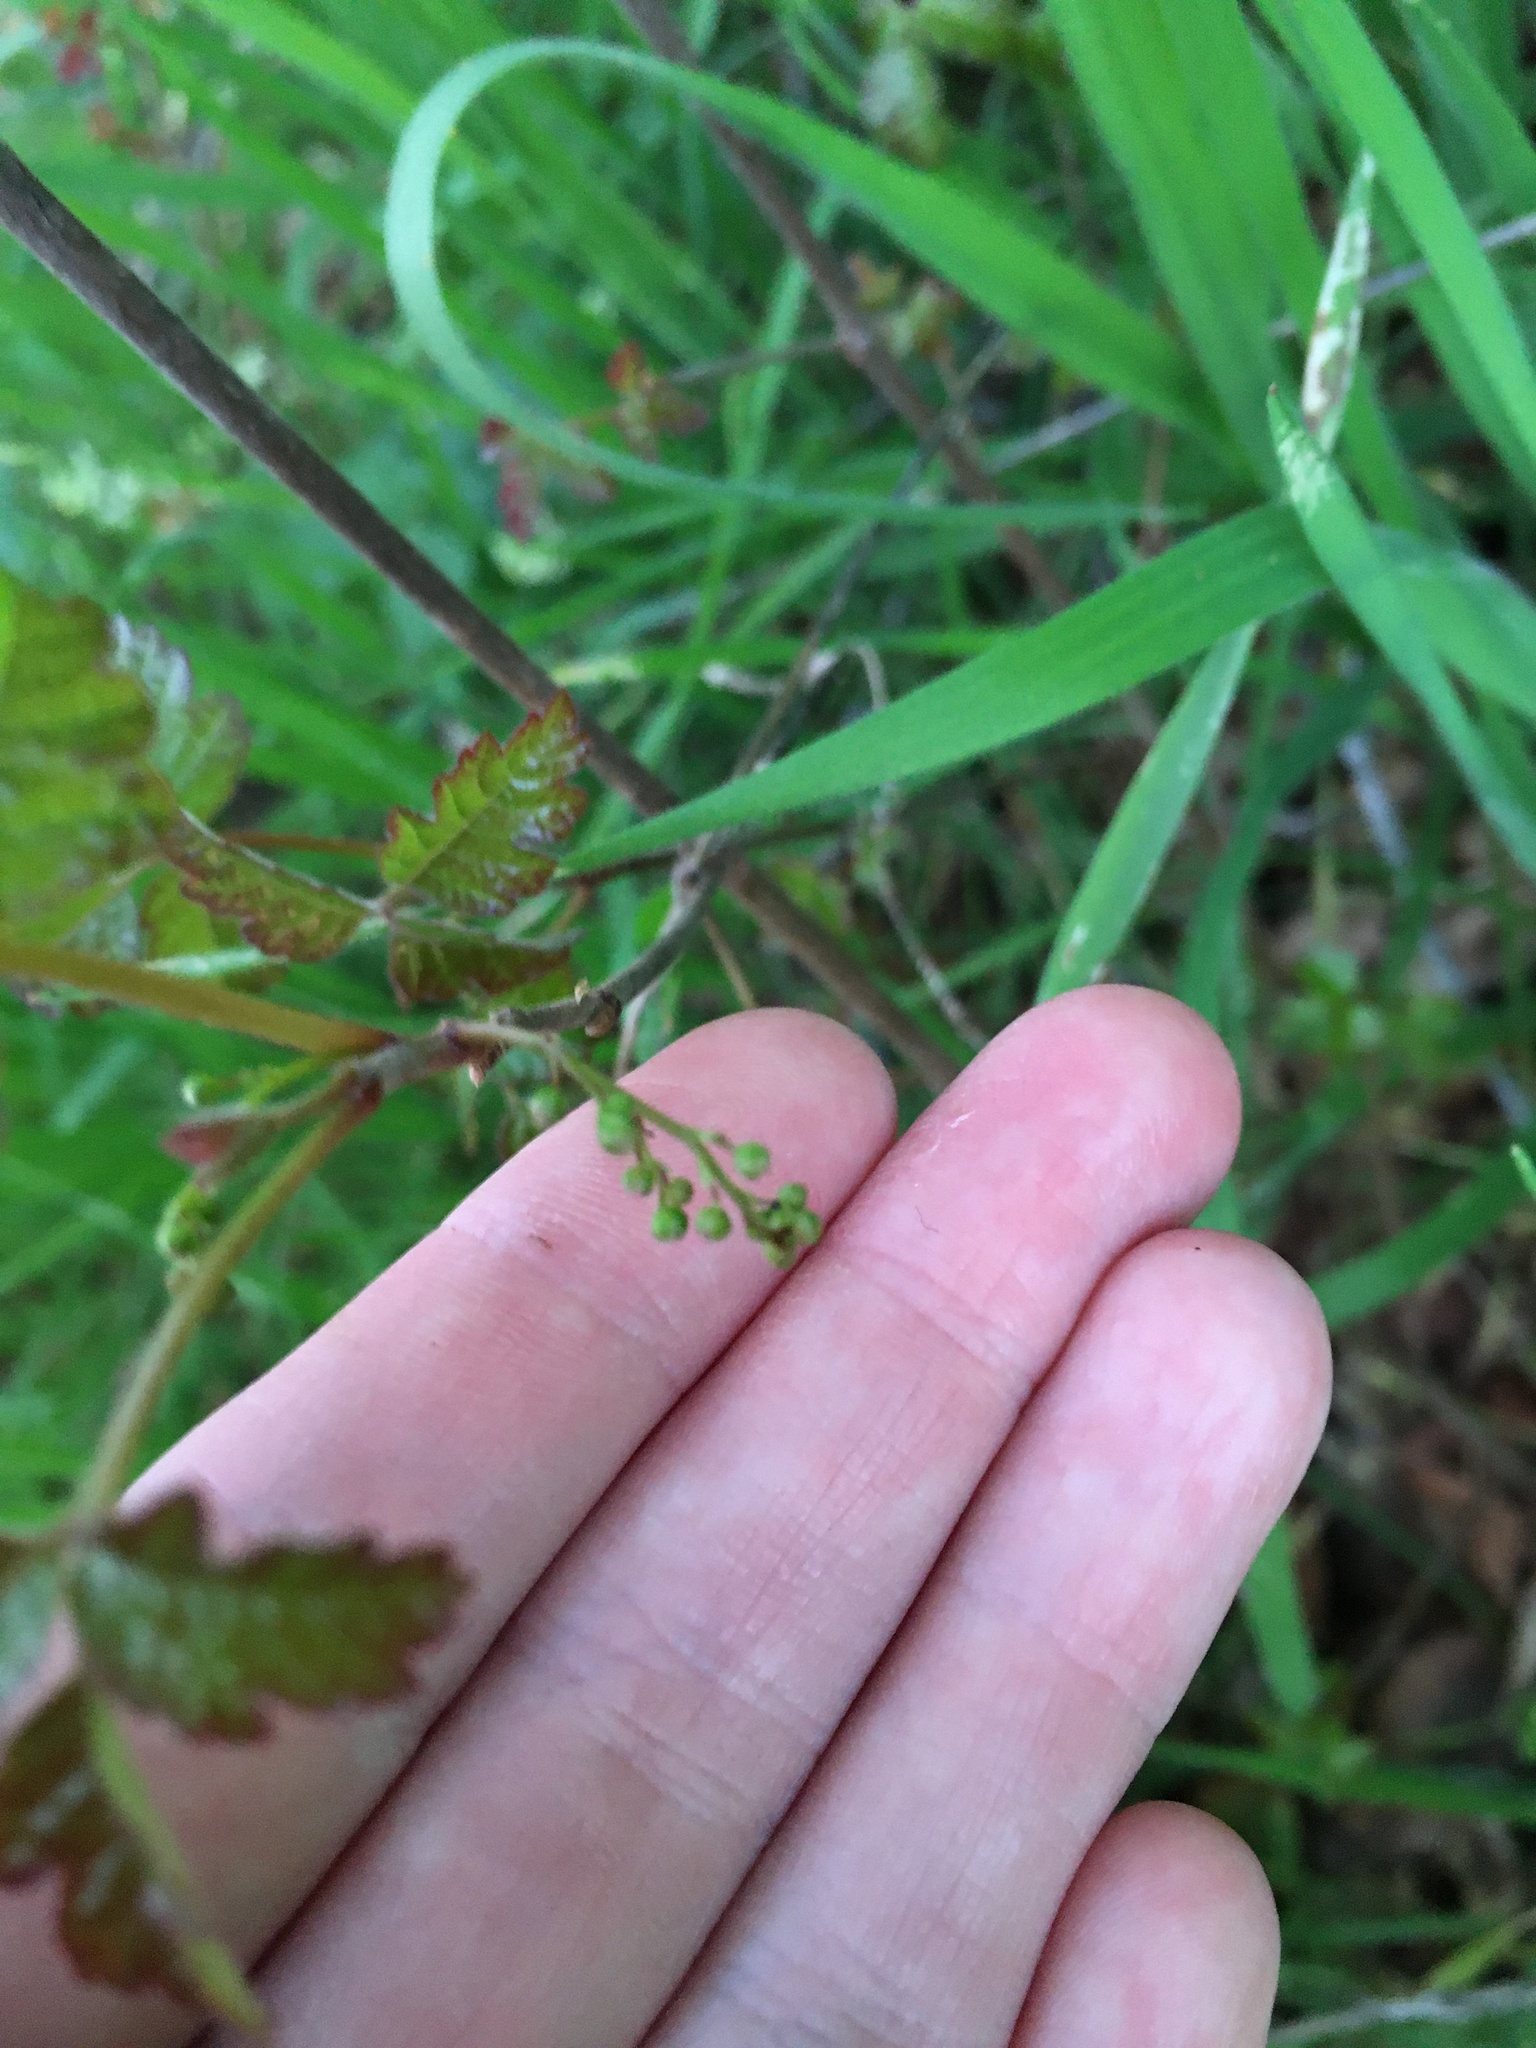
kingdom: Plantae
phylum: Tracheophyta
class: Magnoliopsida
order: Sapindales
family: Anacardiaceae
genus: Toxicodendron
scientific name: Toxicodendron diversilobum
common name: Pacific poison-oak
